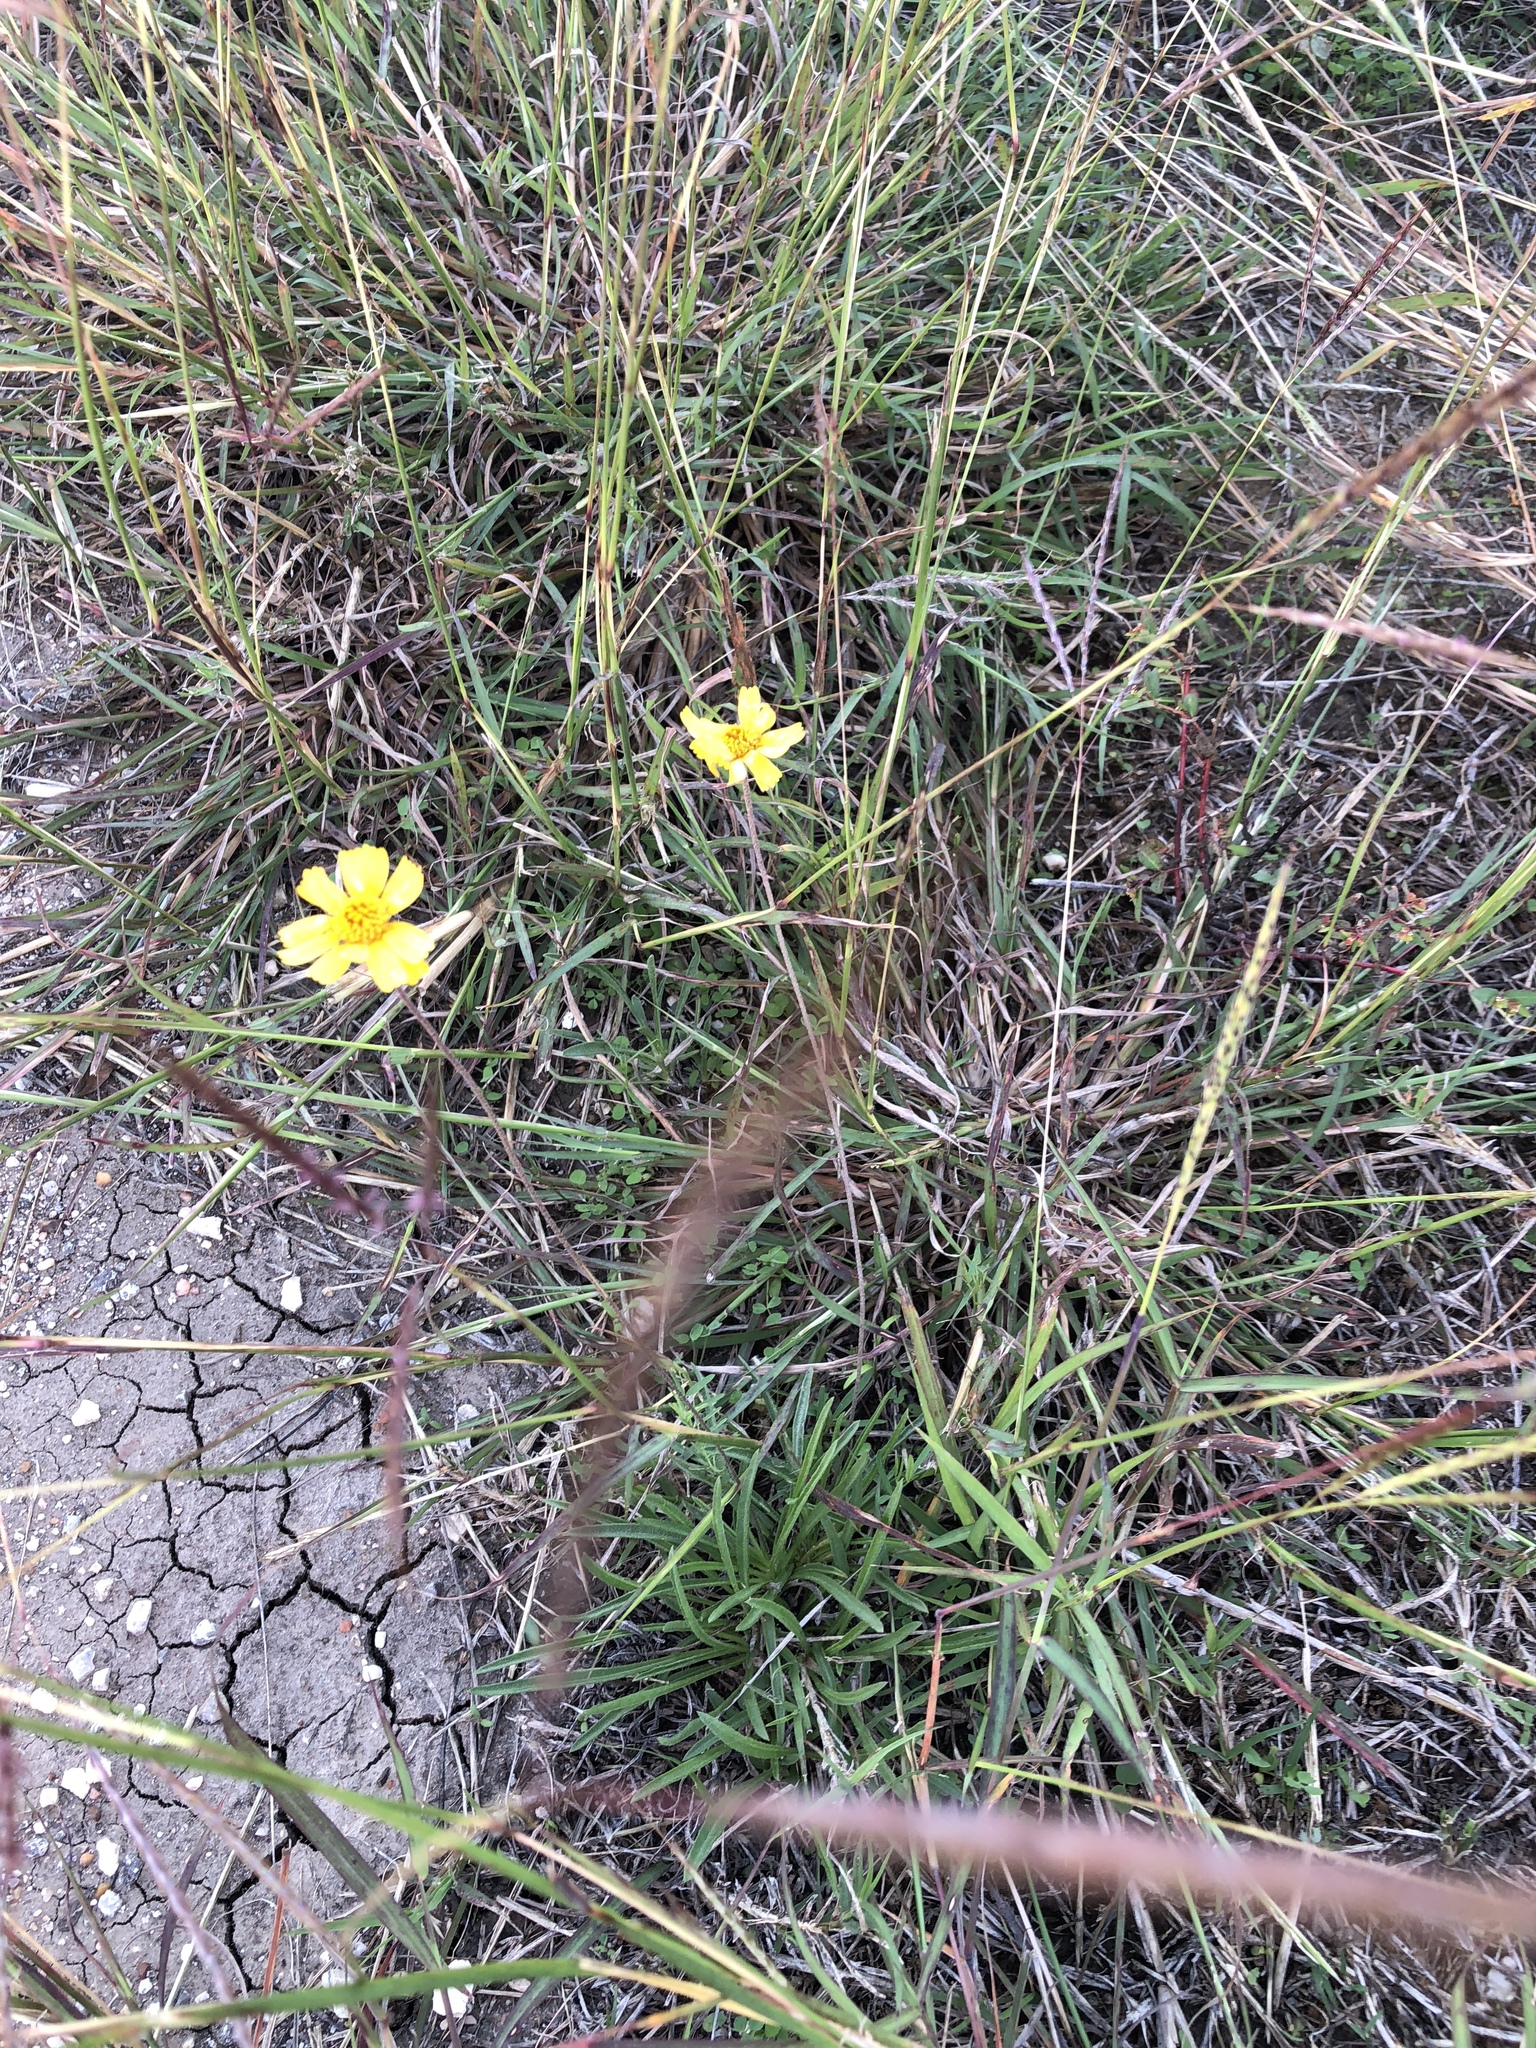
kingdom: Plantae
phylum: Tracheophyta
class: Magnoliopsida
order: Asterales
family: Asteraceae
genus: Tetraneuris
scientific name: Tetraneuris scaposa
